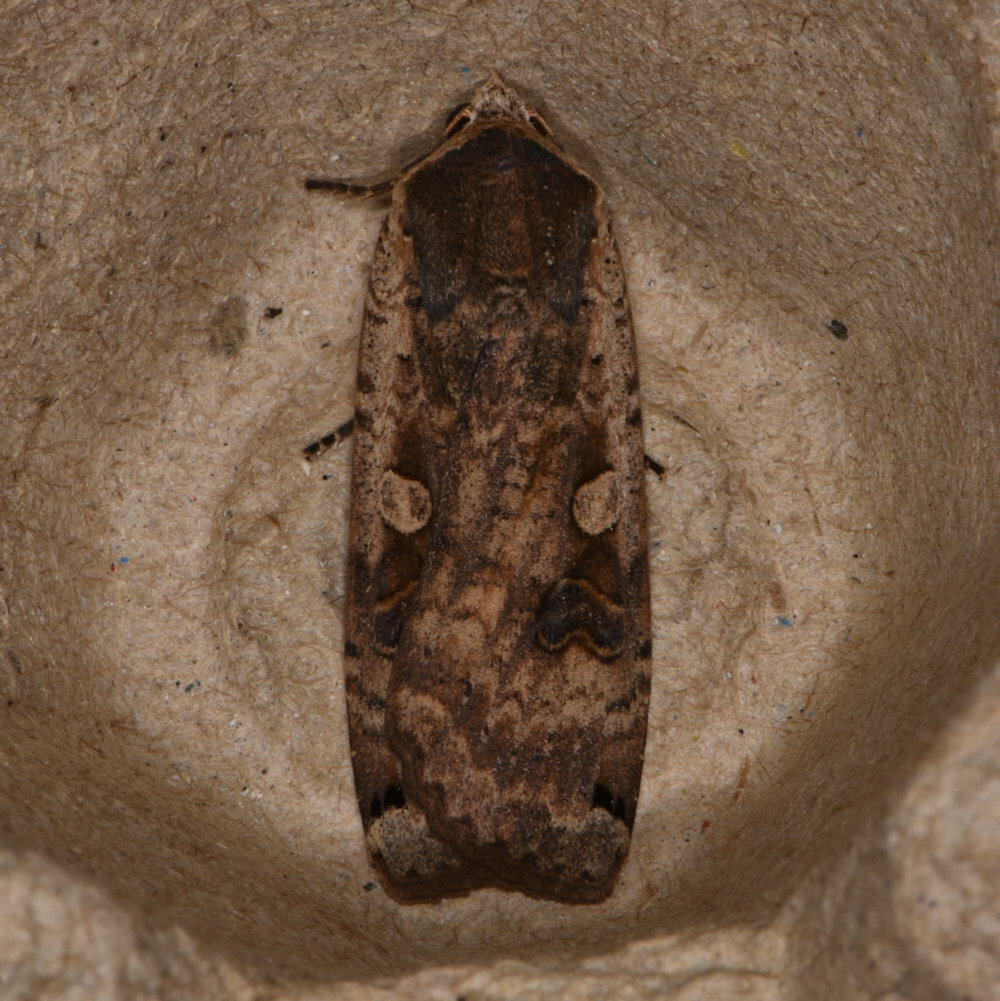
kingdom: Animalia
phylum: Arthropoda
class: Insecta
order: Lepidoptera
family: Noctuidae
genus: Noctua
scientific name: Noctua pronuba
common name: Large yellow underwing
